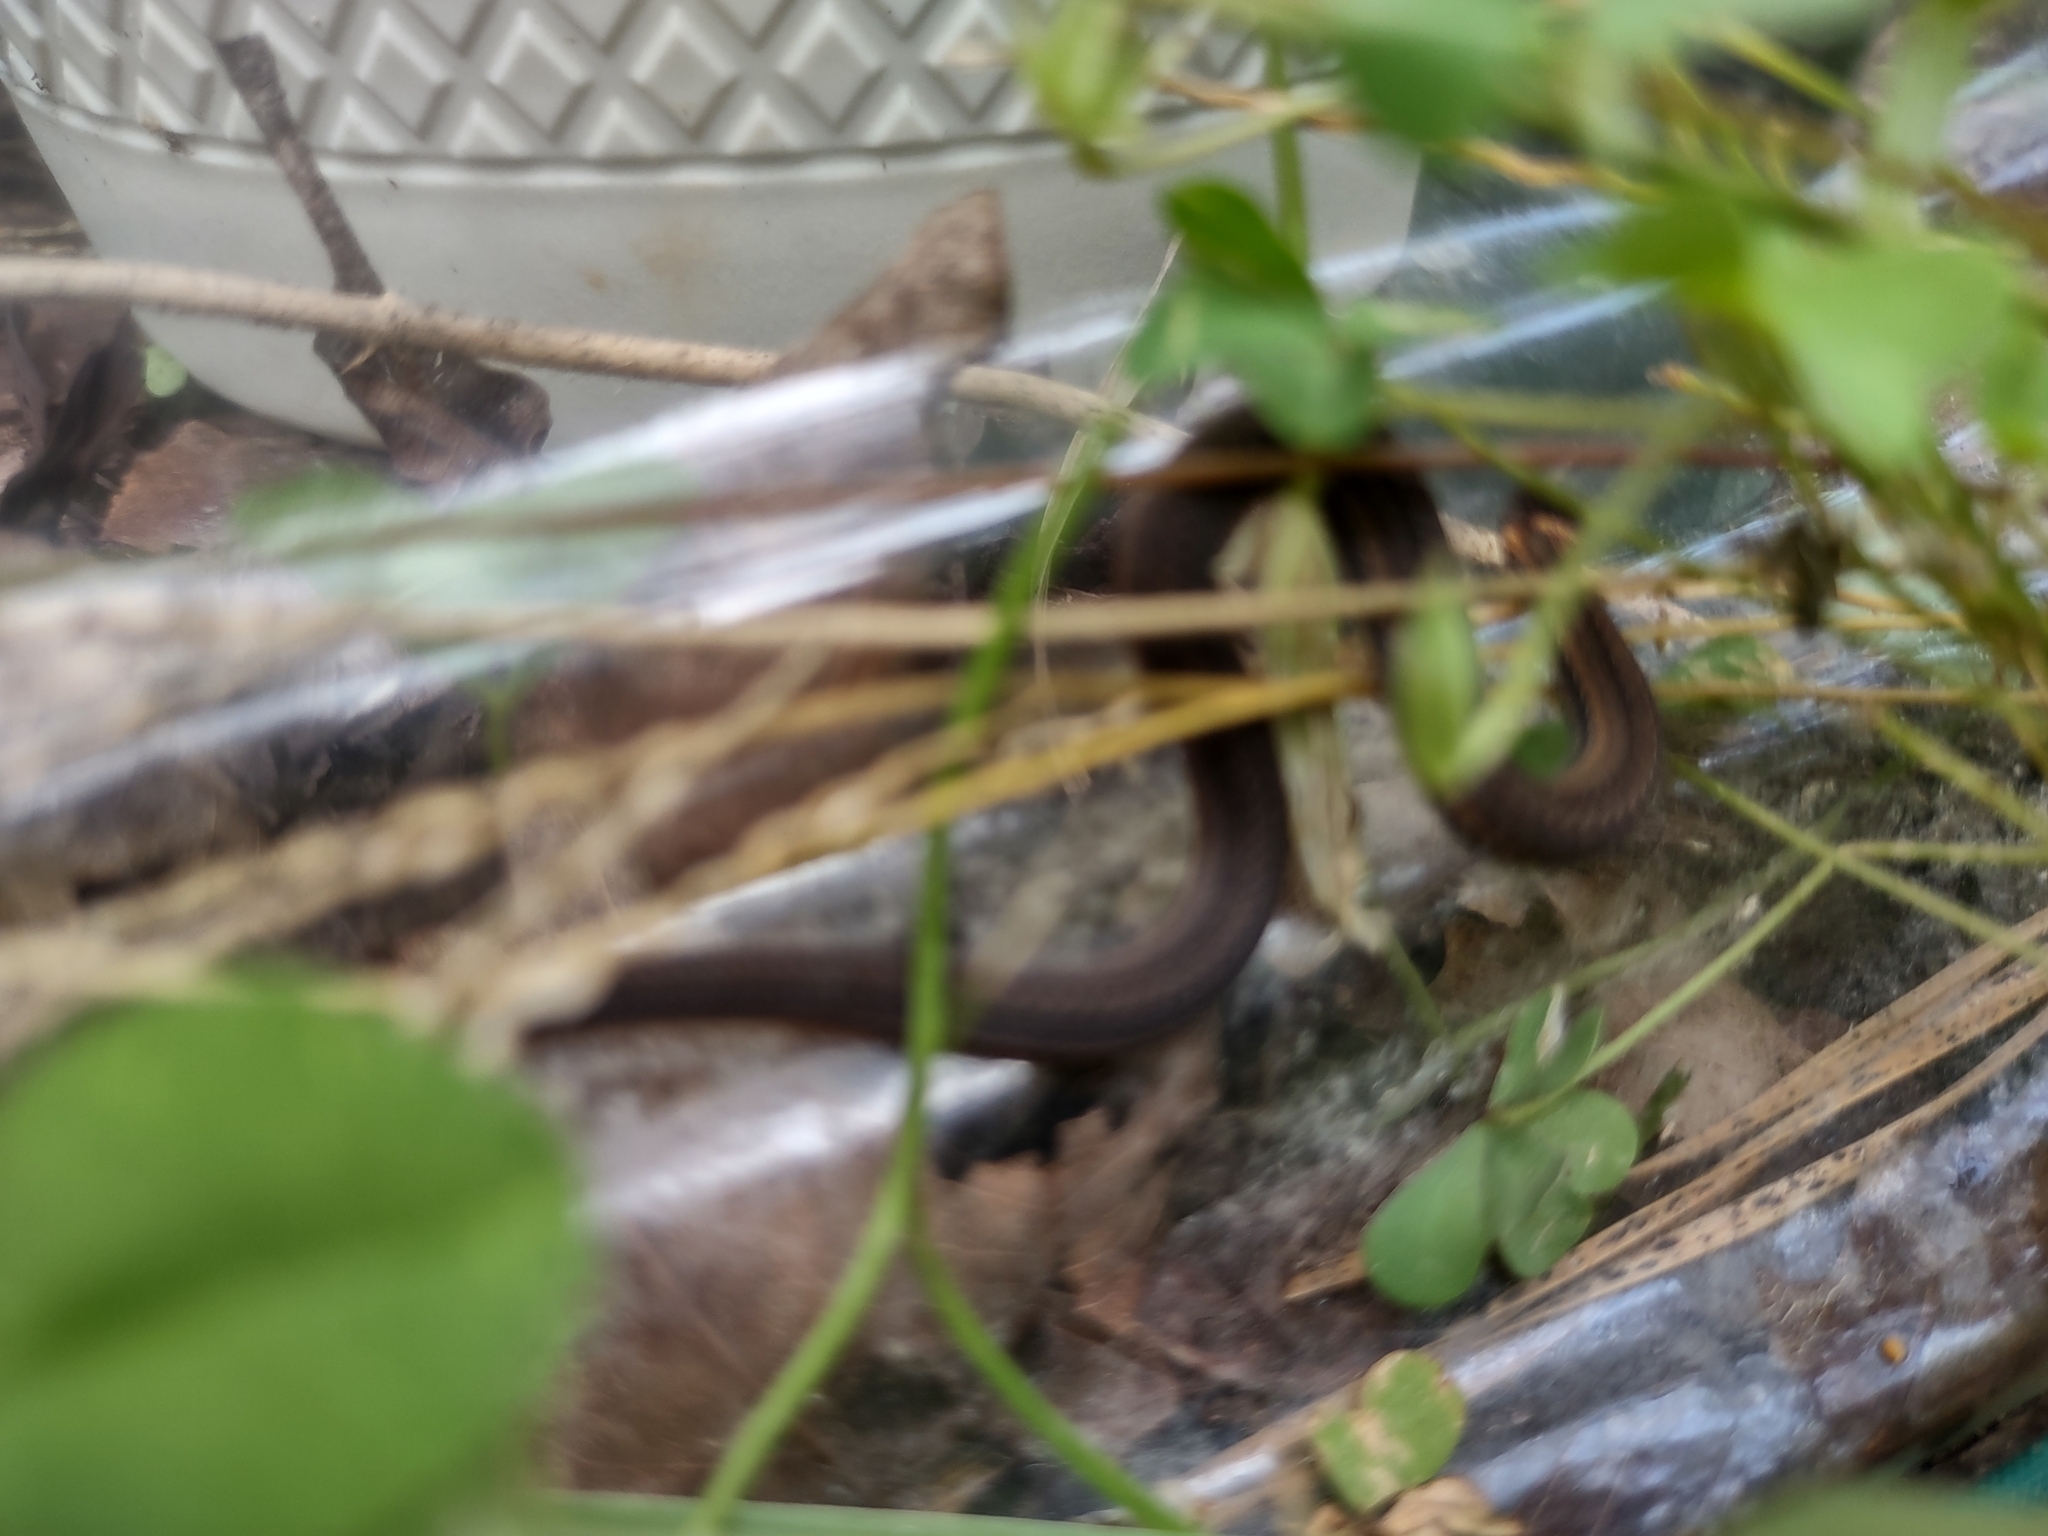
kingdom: Animalia
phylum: Chordata
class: Squamata
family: Colubridae
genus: Storeria
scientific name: Storeria occipitomaculata
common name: Redbelly snake
